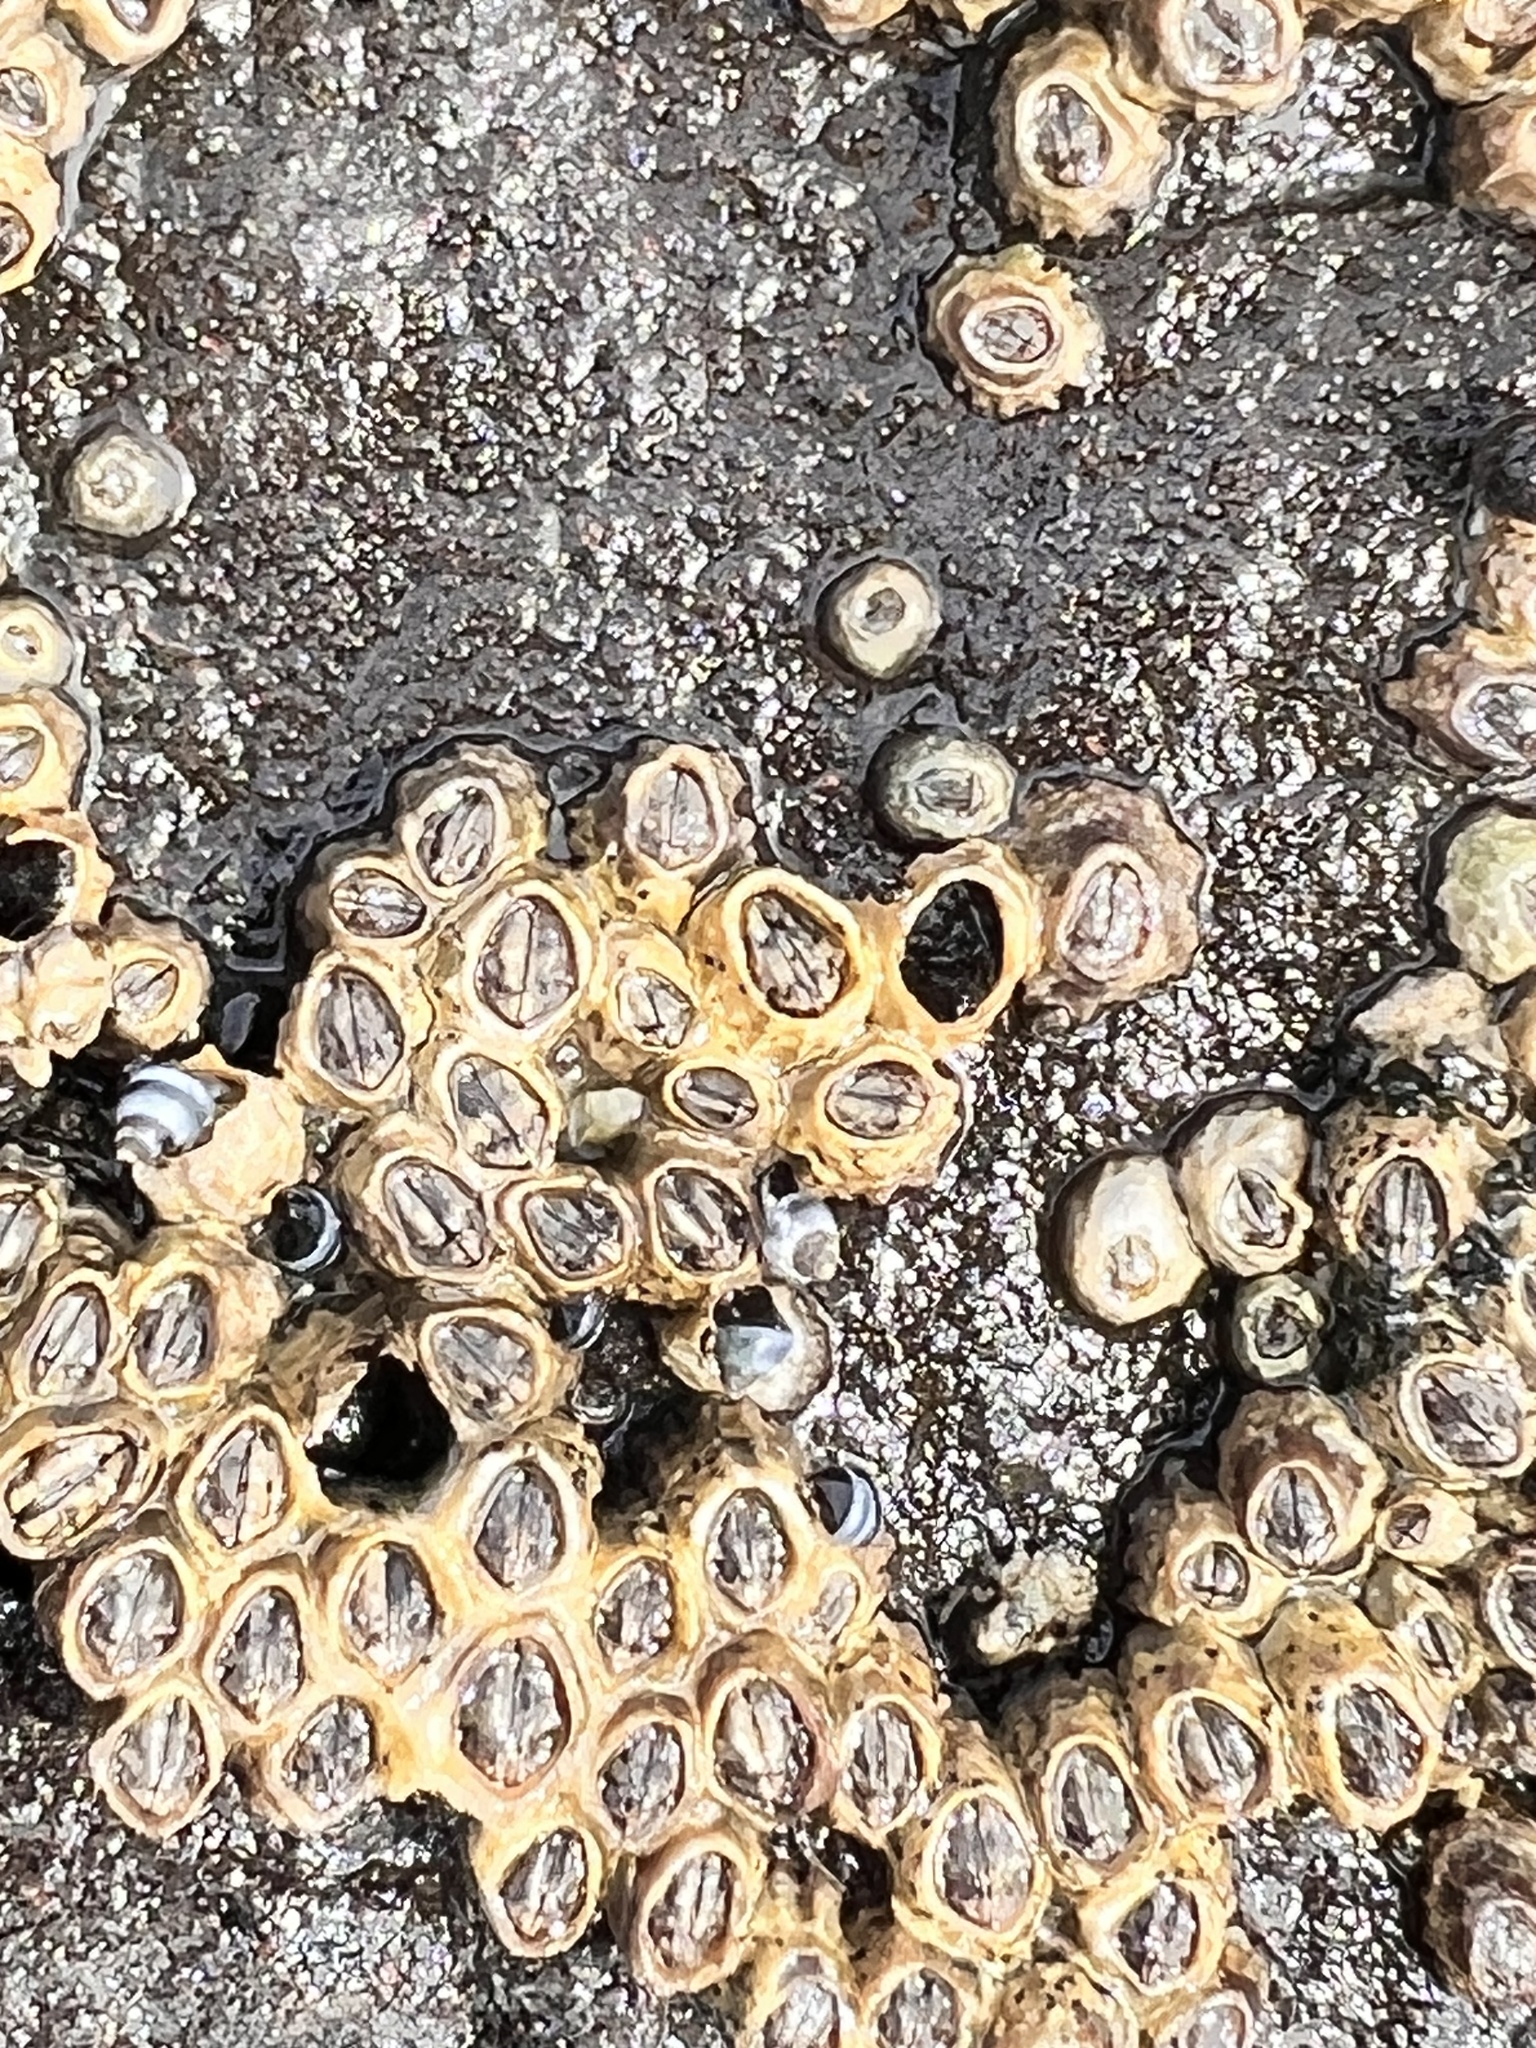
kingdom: Animalia
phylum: Arthropoda
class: Maxillopoda
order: Sessilia
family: Chthamalidae
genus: Chamaesipho
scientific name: Chamaesipho columna
